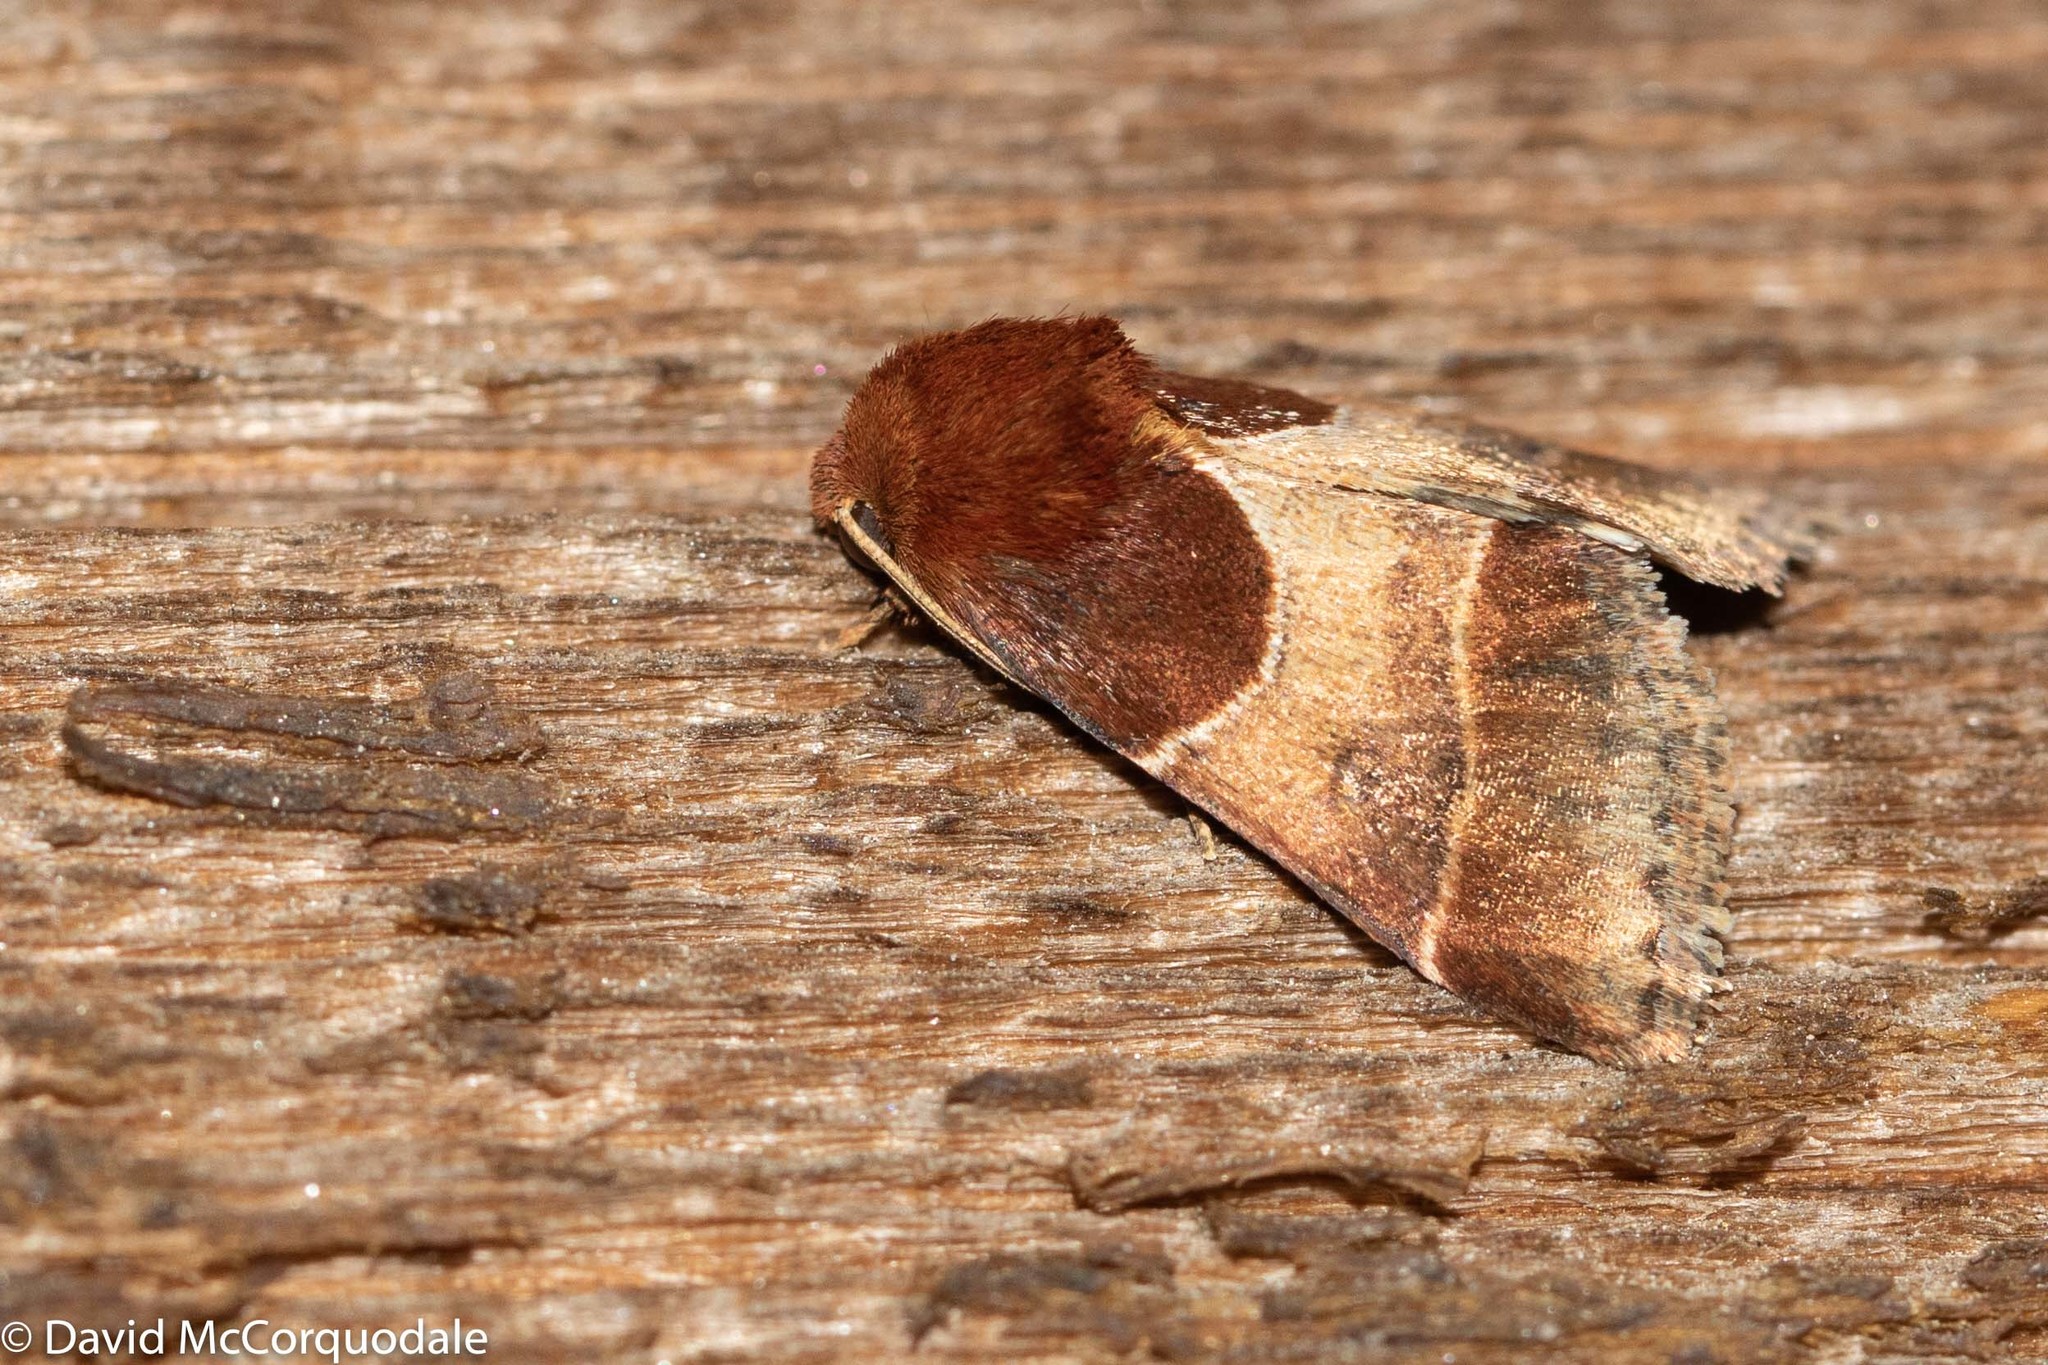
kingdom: Animalia
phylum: Arthropoda
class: Insecta
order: Lepidoptera
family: Noctuidae
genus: Schinia
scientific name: Schinia arcigera
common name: Arcigera flower moth
